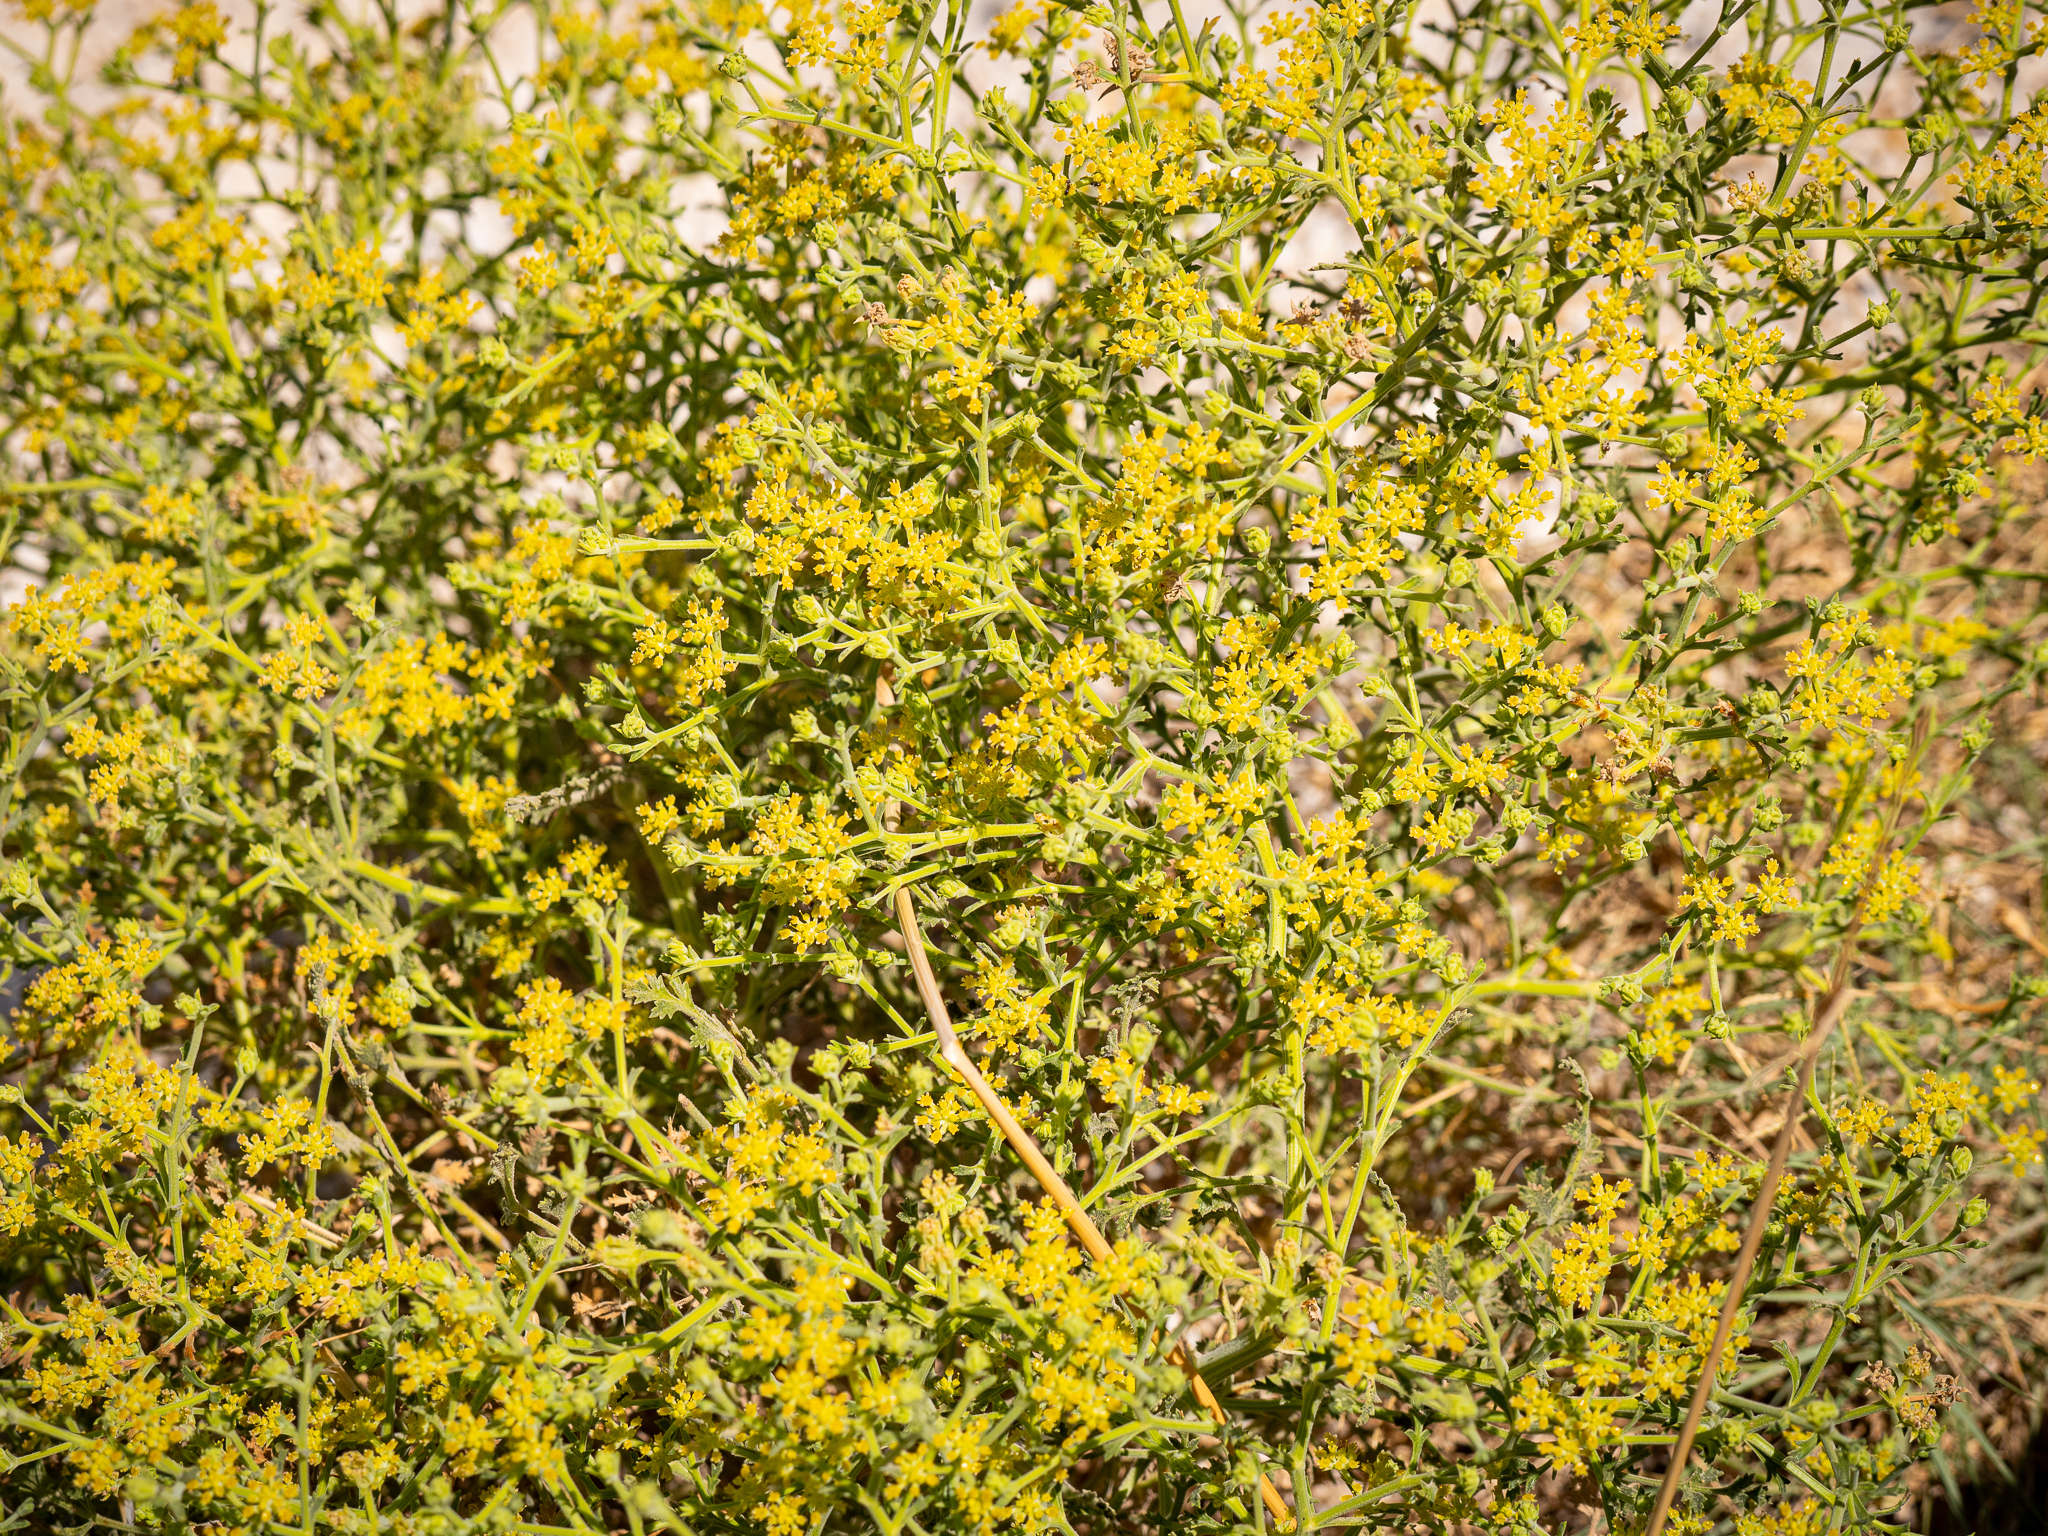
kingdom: Plantae
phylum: Tracheophyta
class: Magnoliopsida
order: Apiales
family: Apiaceae
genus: Echinophora
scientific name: Echinophora sibthorpiana
